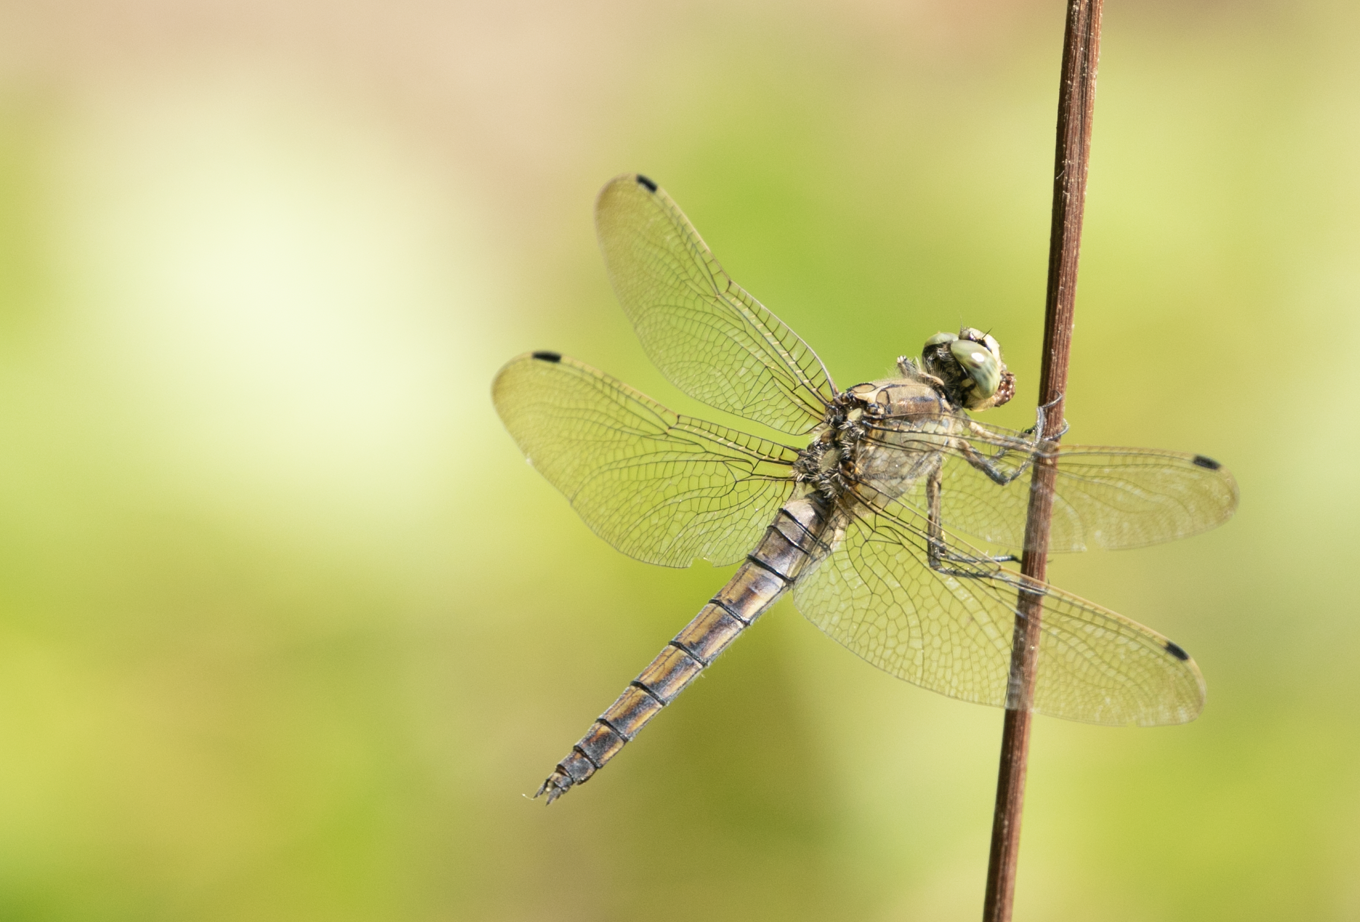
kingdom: Animalia
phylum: Arthropoda
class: Insecta
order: Odonata
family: Libellulidae
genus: Orthetrum
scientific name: Orthetrum cancellatum
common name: Black-tailed skimmer
